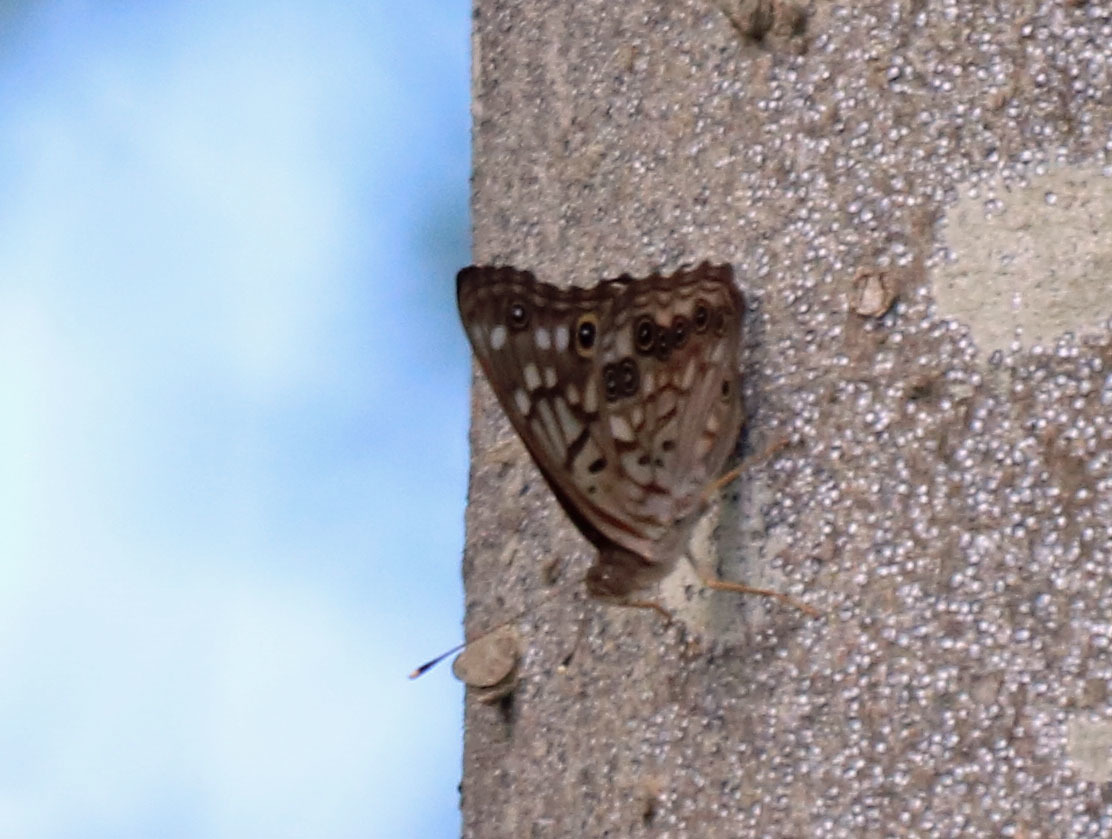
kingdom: Animalia
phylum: Arthropoda
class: Insecta
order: Lepidoptera
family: Nymphalidae
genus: Asterocampa
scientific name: Asterocampa celtis
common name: Hackberry emperor
